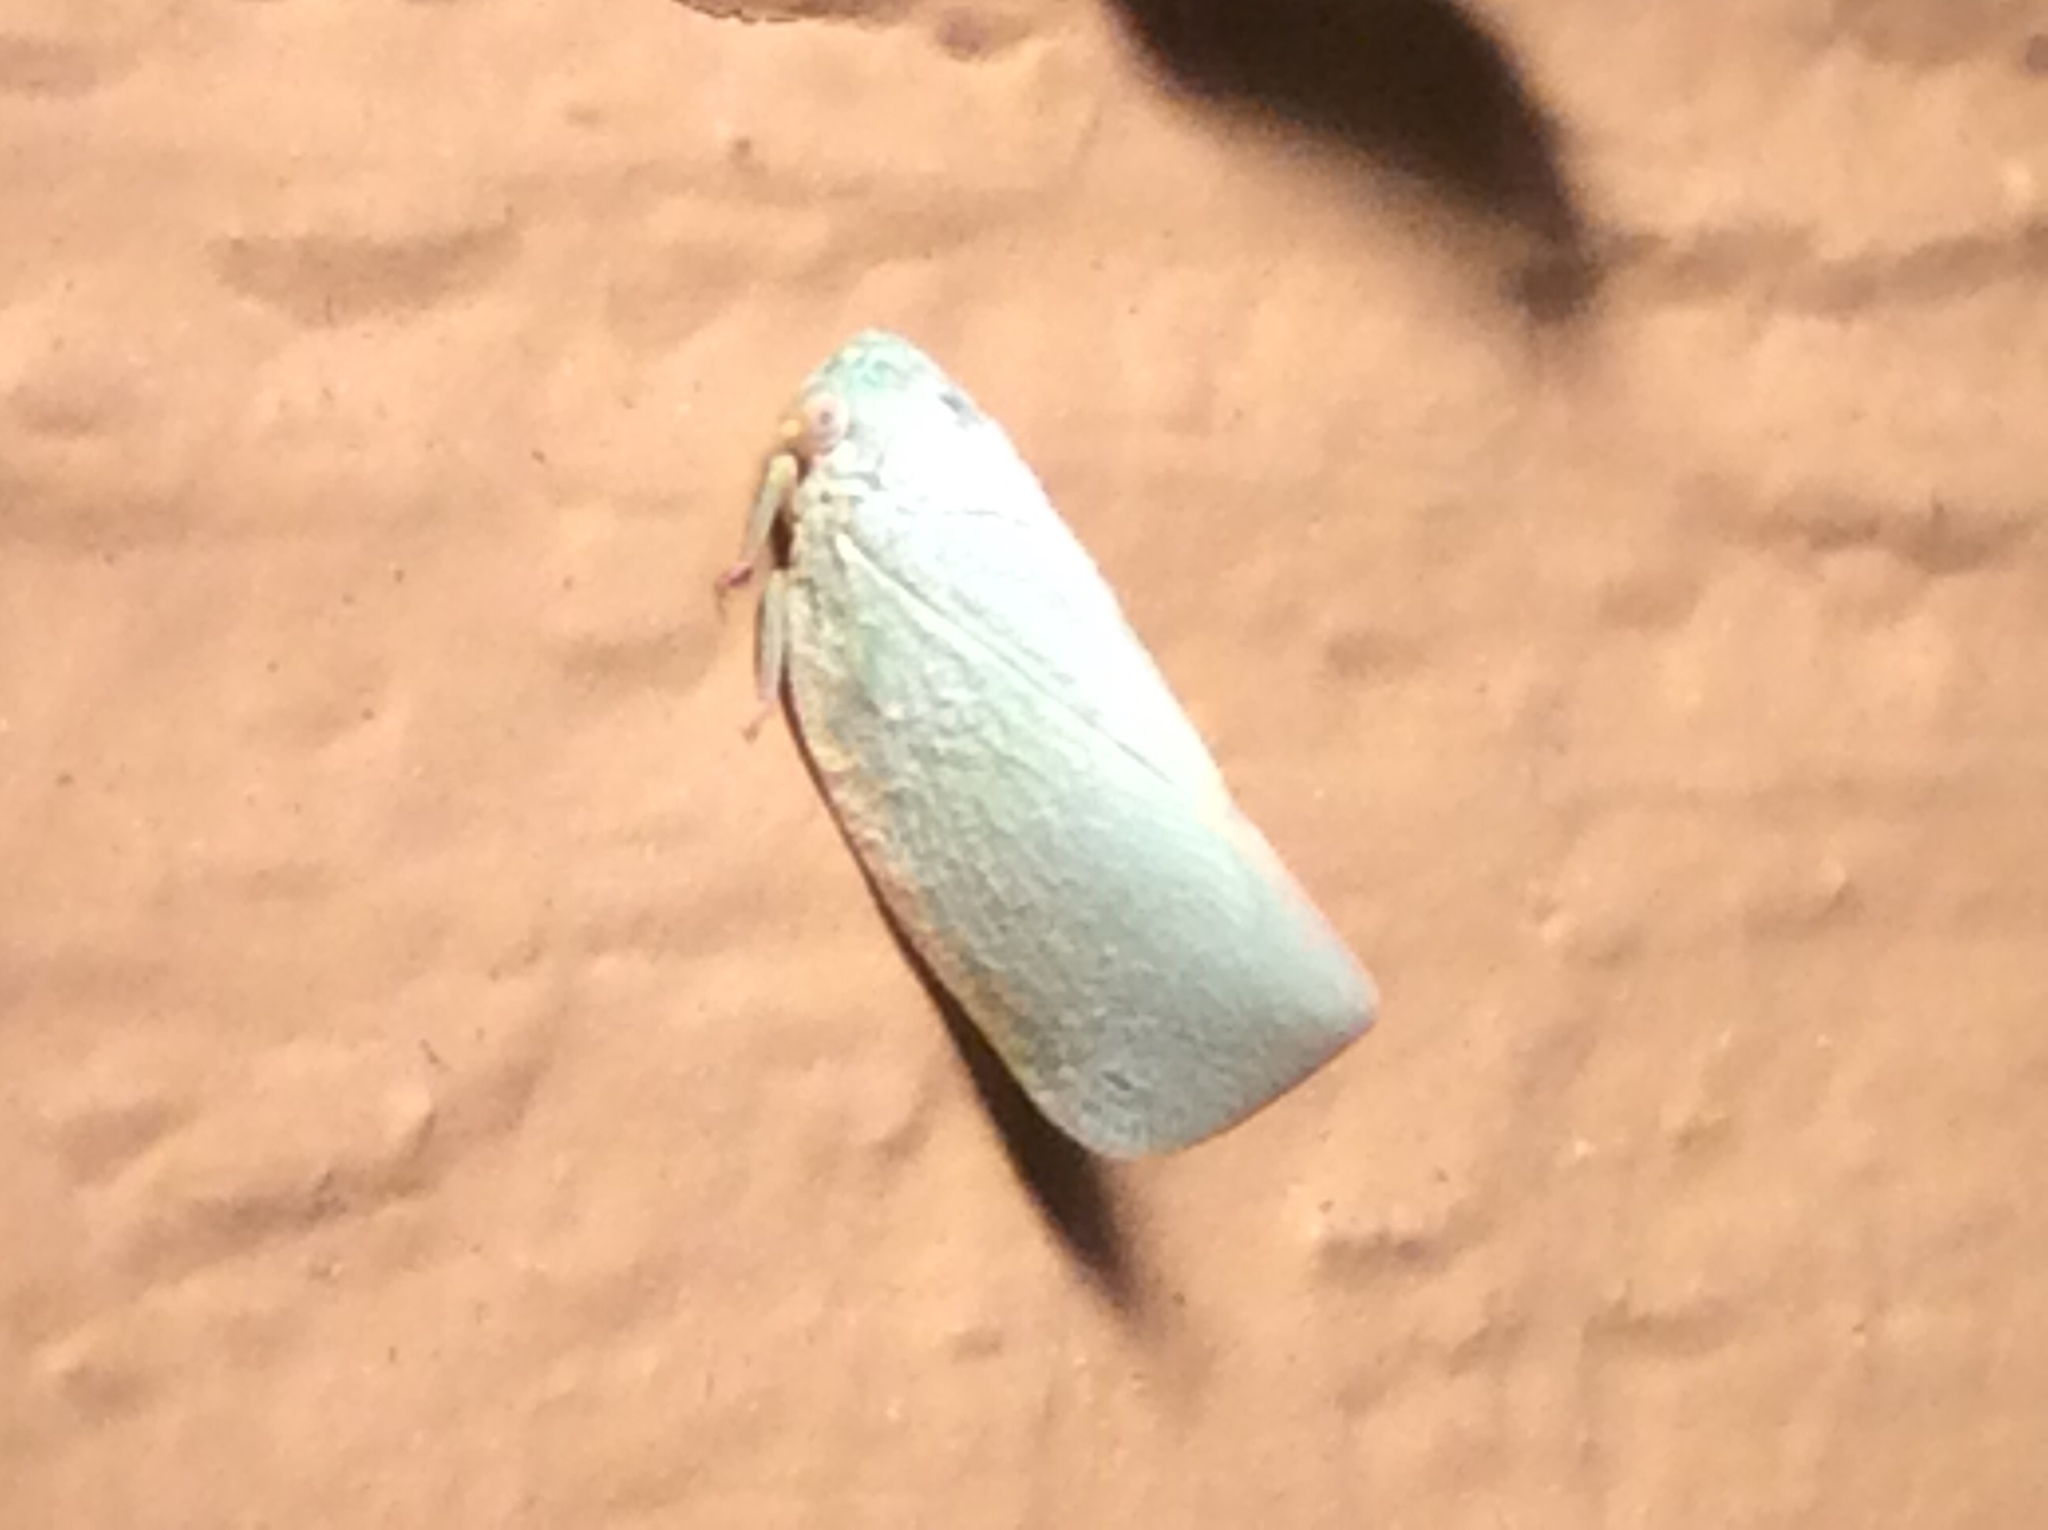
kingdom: Animalia
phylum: Arthropoda
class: Insecta
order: Hemiptera
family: Flatidae
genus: Flatormenis
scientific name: Flatormenis proxima
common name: Northern flatid planthopper
